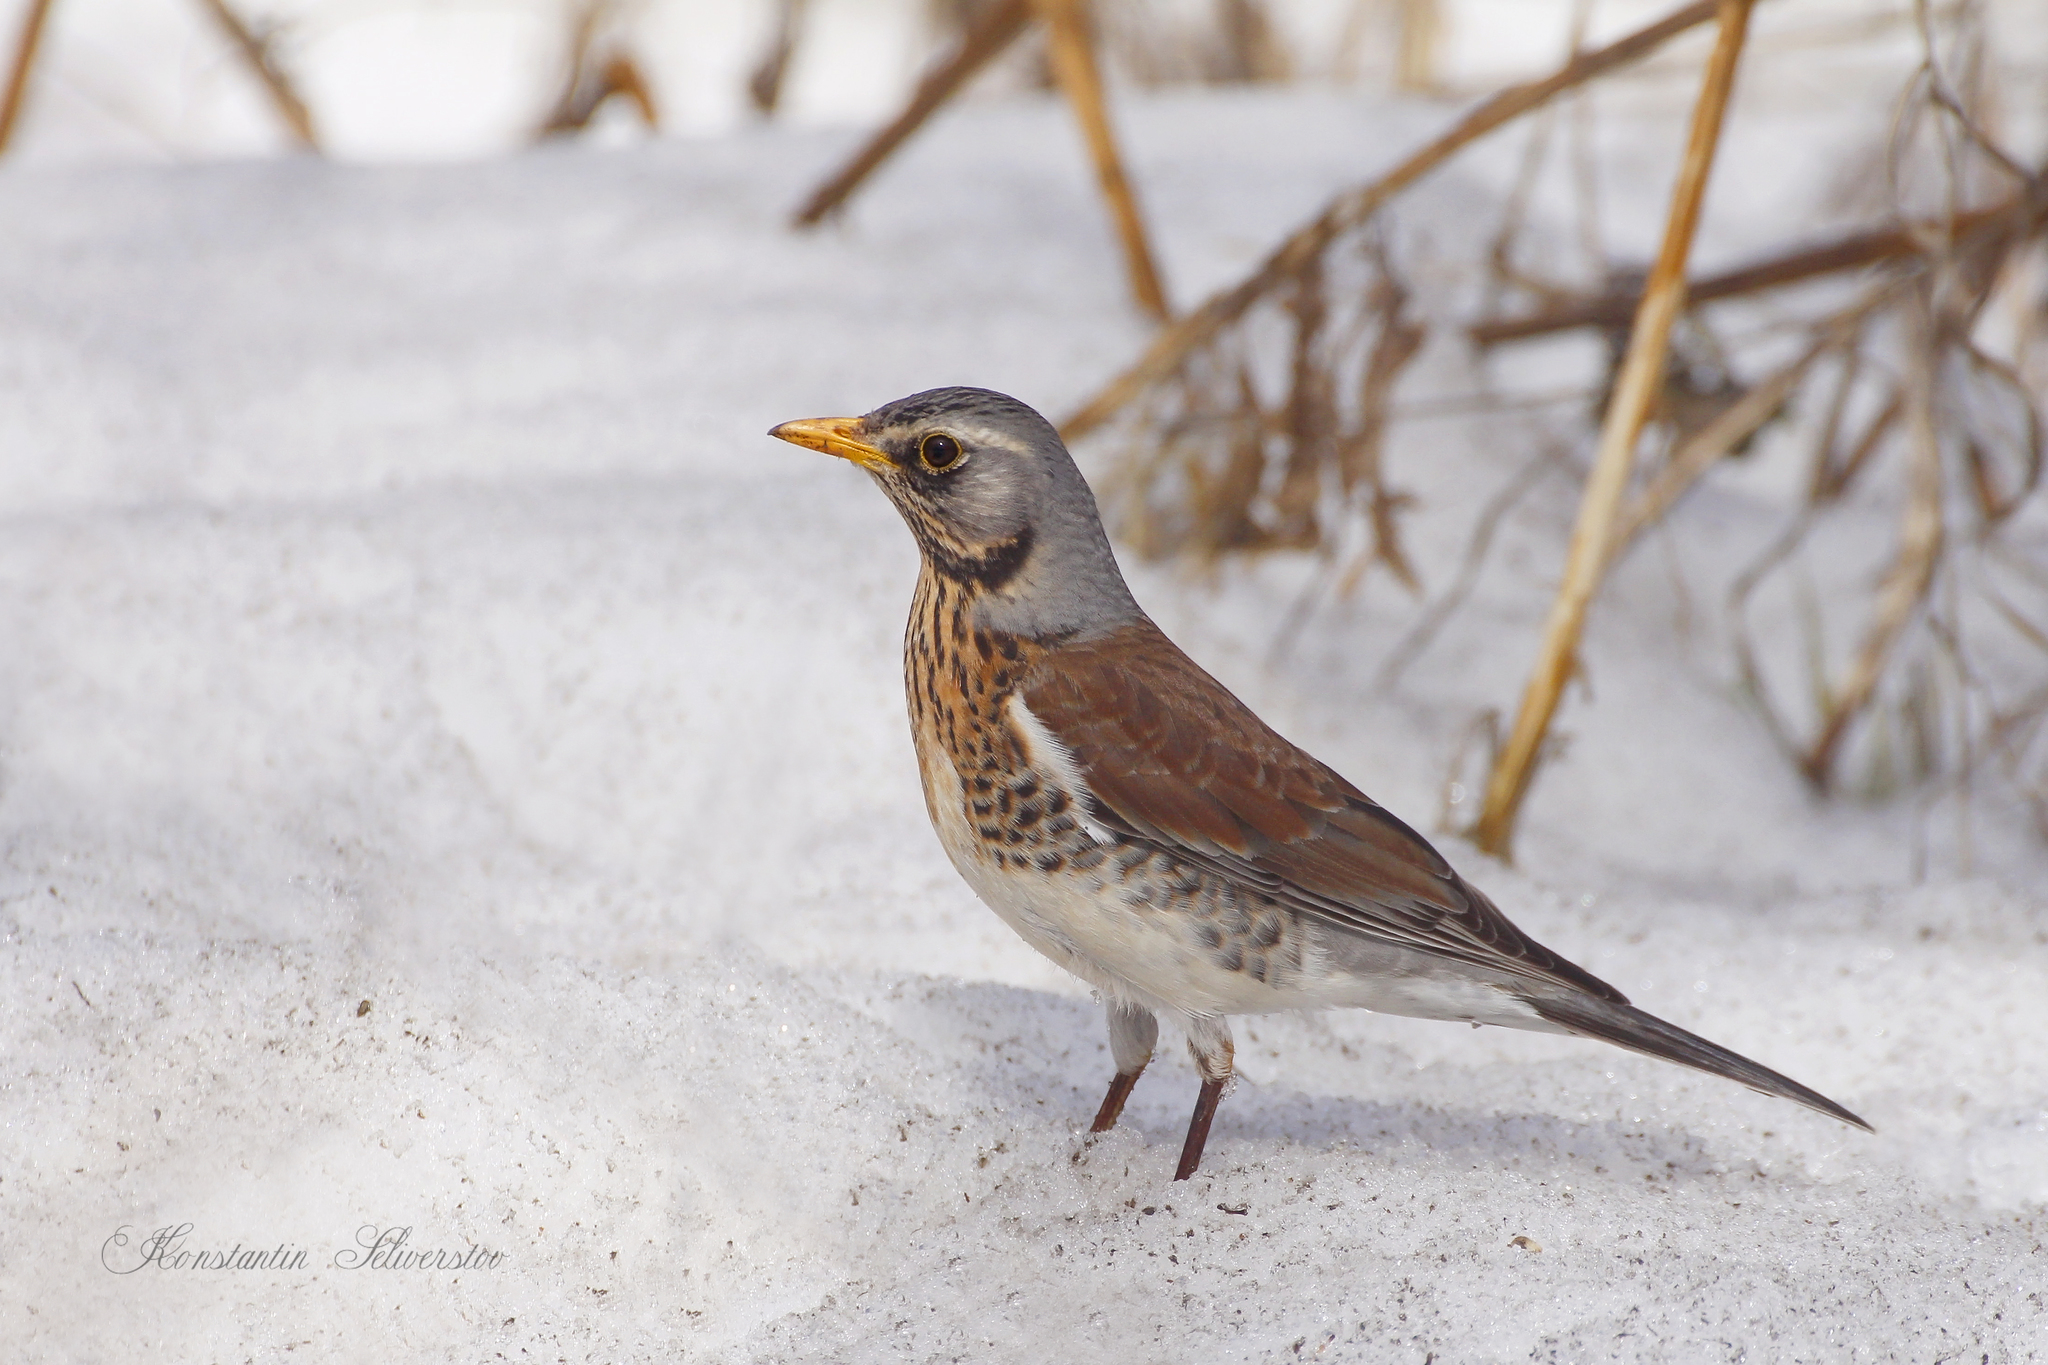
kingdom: Animalia
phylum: Chordata
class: Aves
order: Passeriformes
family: Turdidae
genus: Turdus
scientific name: Turdus pilaris
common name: Fieldfare
